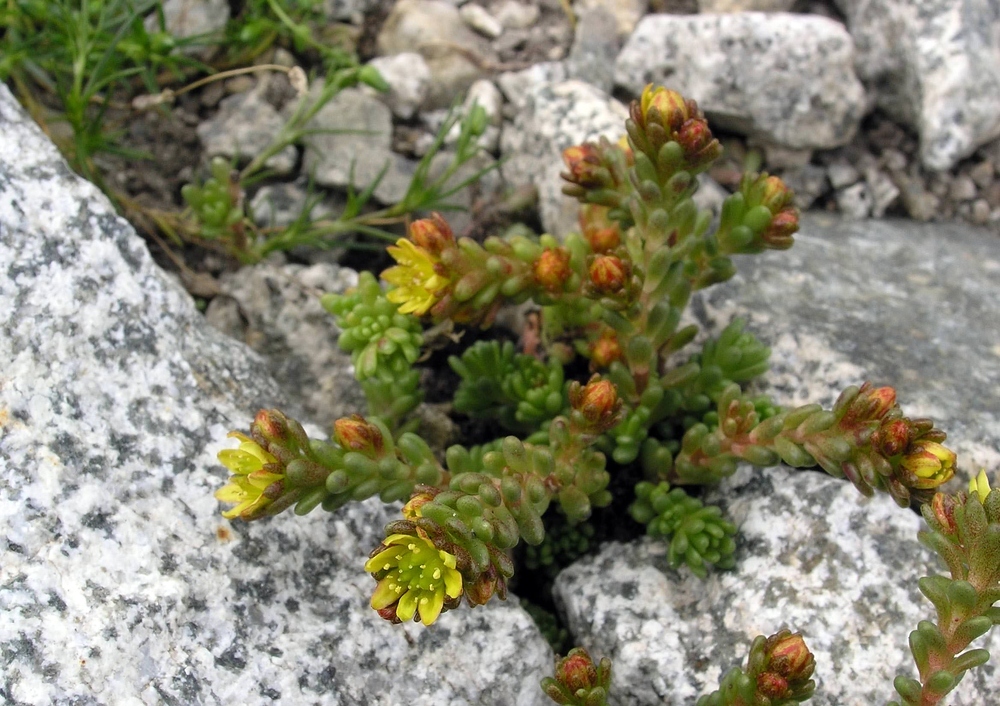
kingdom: Plantae
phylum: Tracheophyta
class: Magnoliopsida
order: Saxifragales
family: Crassulaceae
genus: Sedum
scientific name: Sedum alpestre
